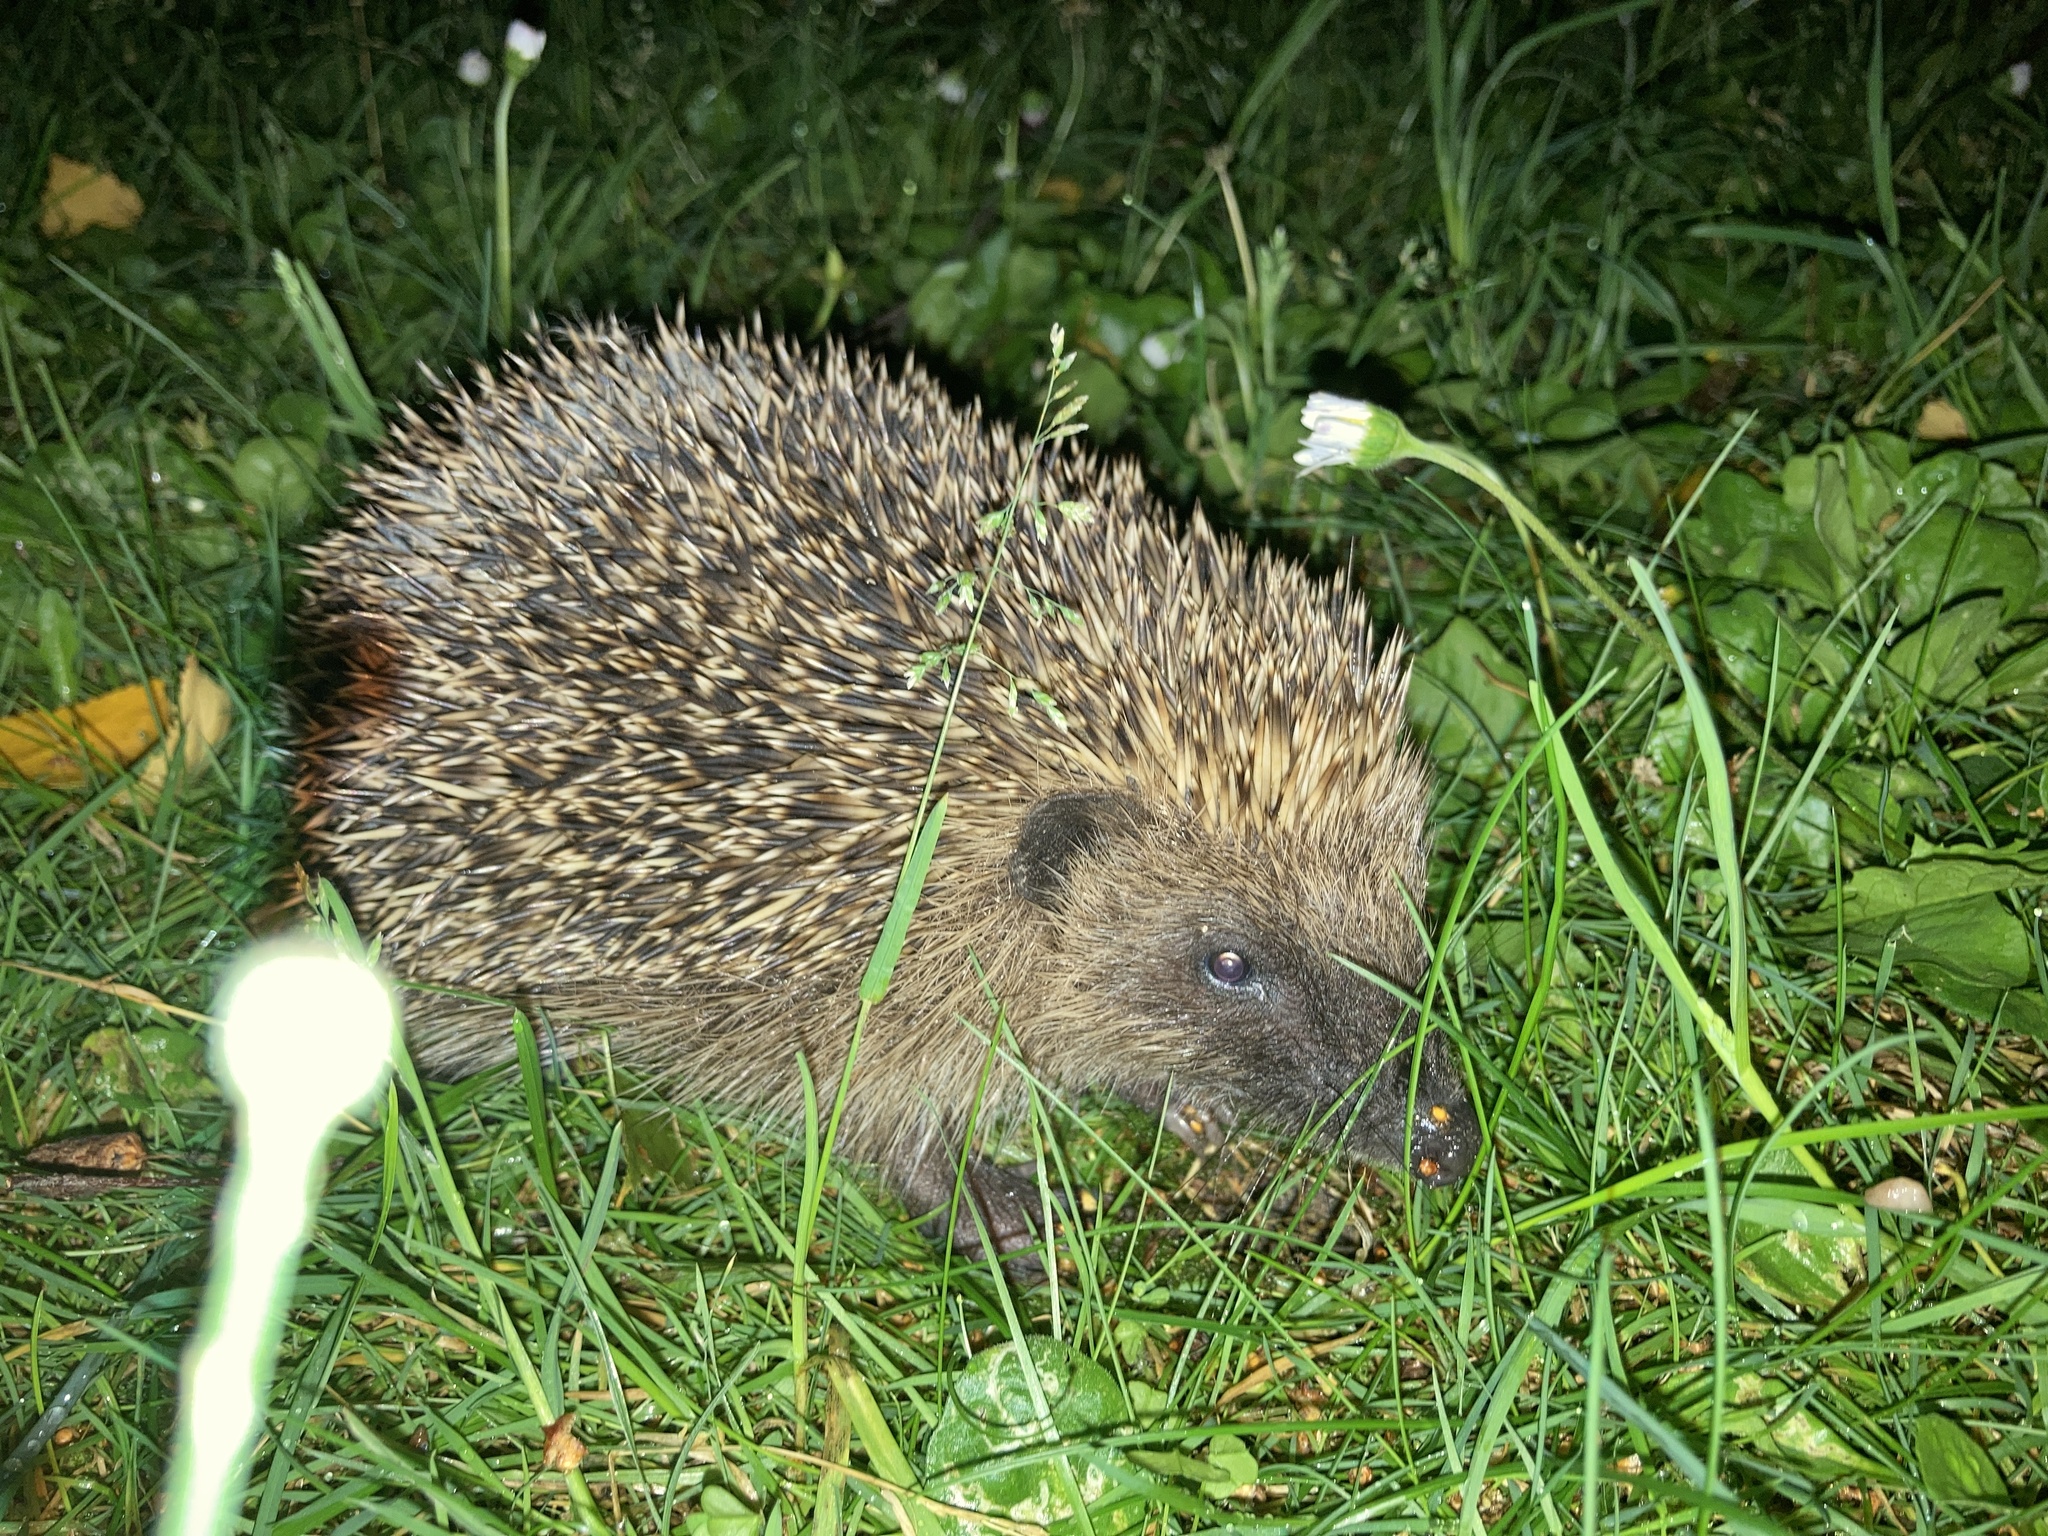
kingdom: Animalia
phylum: Chordata
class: Mammalia
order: Erinaceomorpha
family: Erinaceidae
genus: Erinaceus
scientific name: Erinaceus europaeus
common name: West european hedgehog
